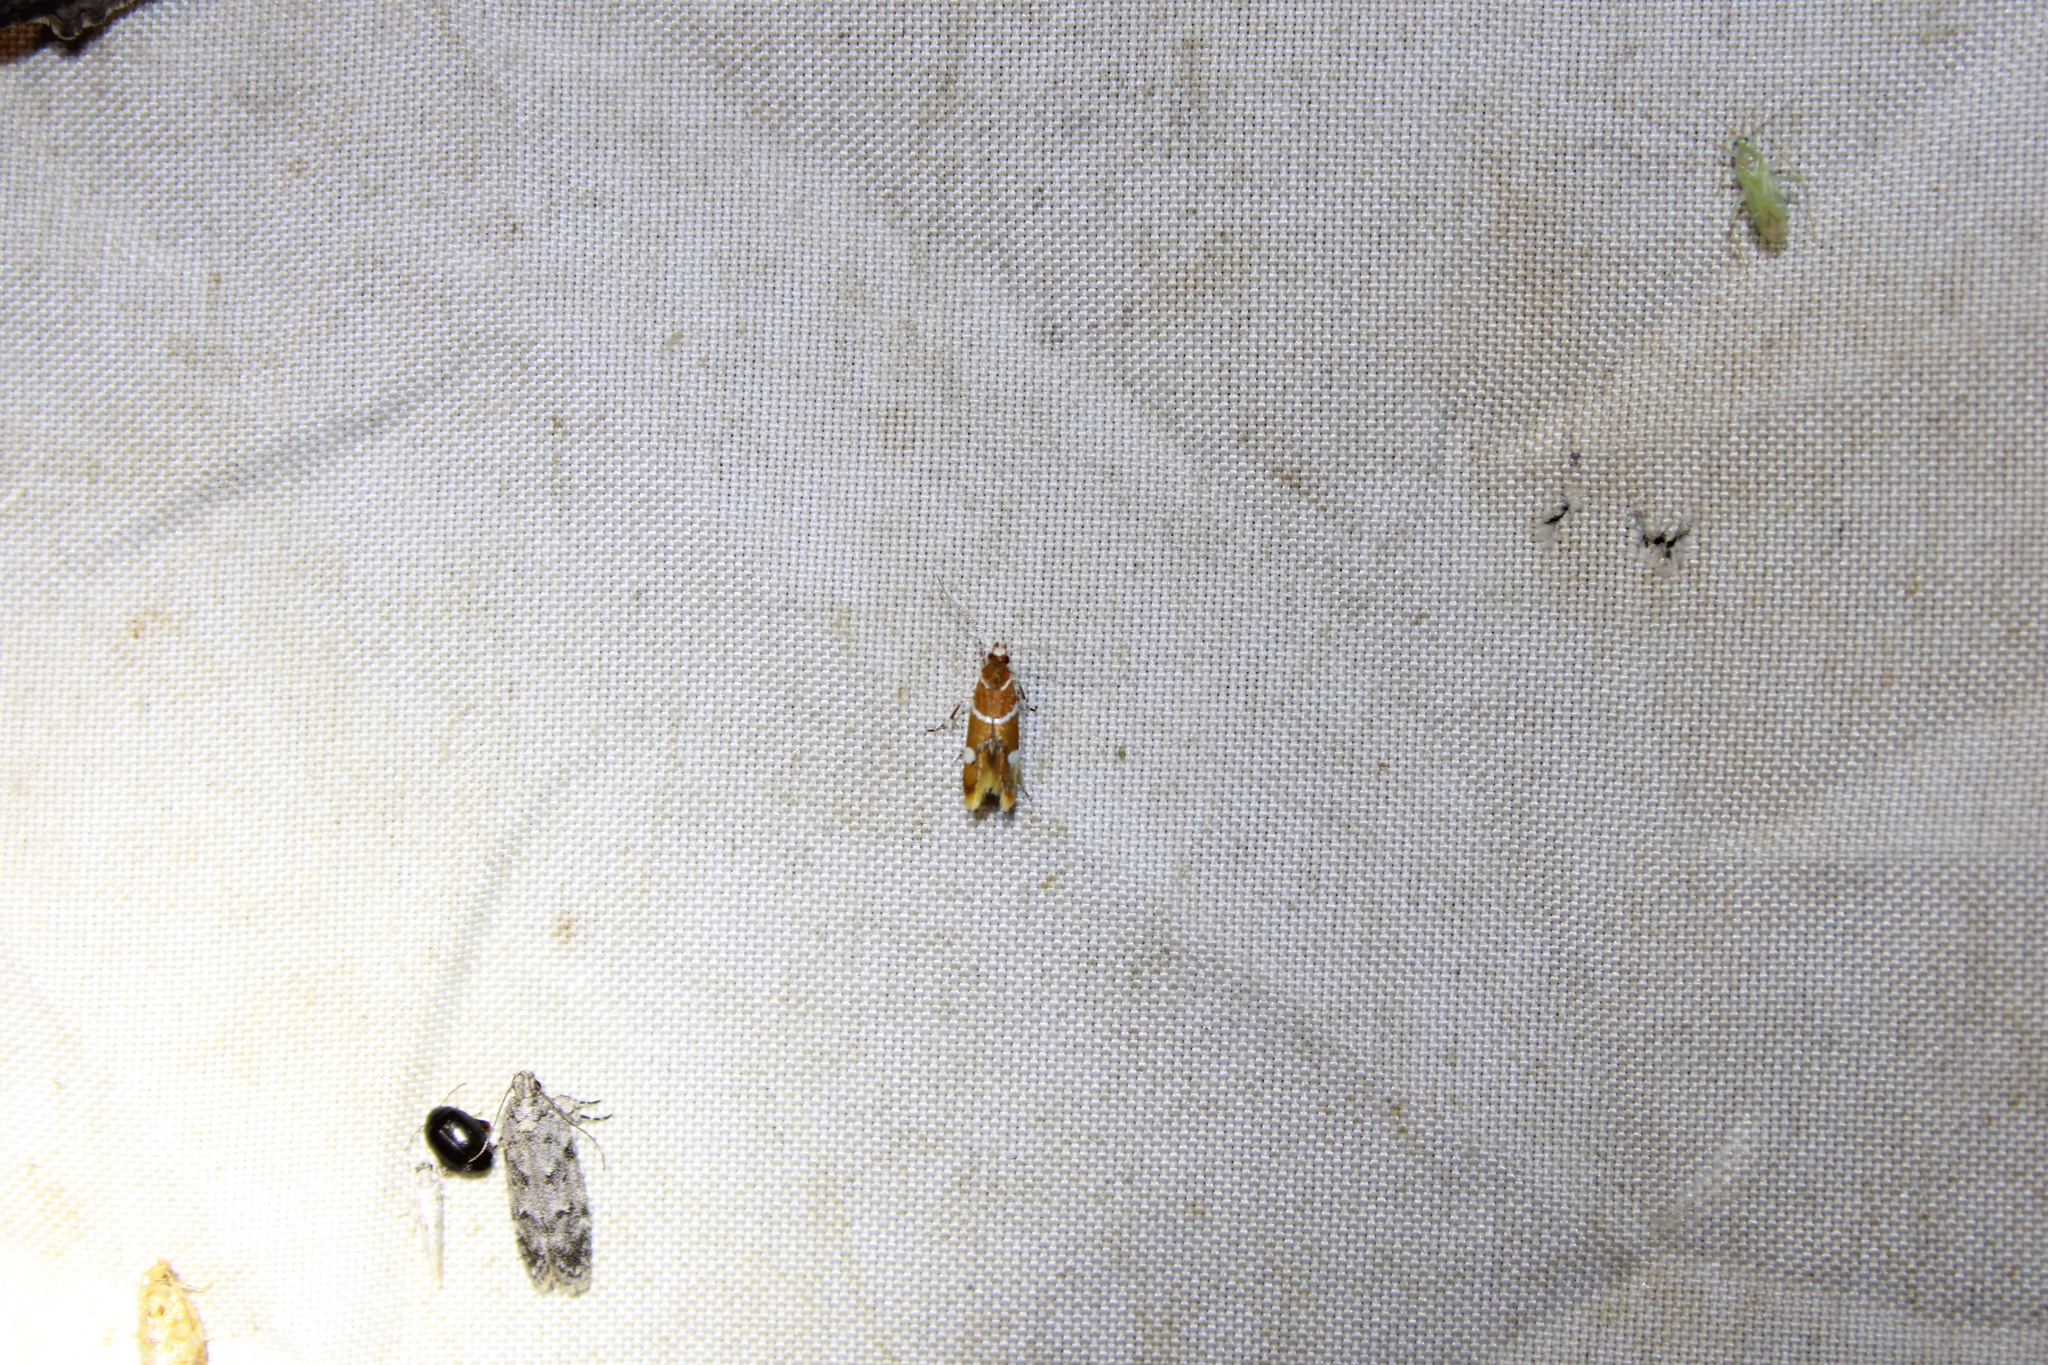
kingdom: Animalia
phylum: Arthropoda
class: Insecta
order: Lepidoptera
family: Oecophoridae
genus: Promalactis
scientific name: Promalactis suzukiella
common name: Moth
